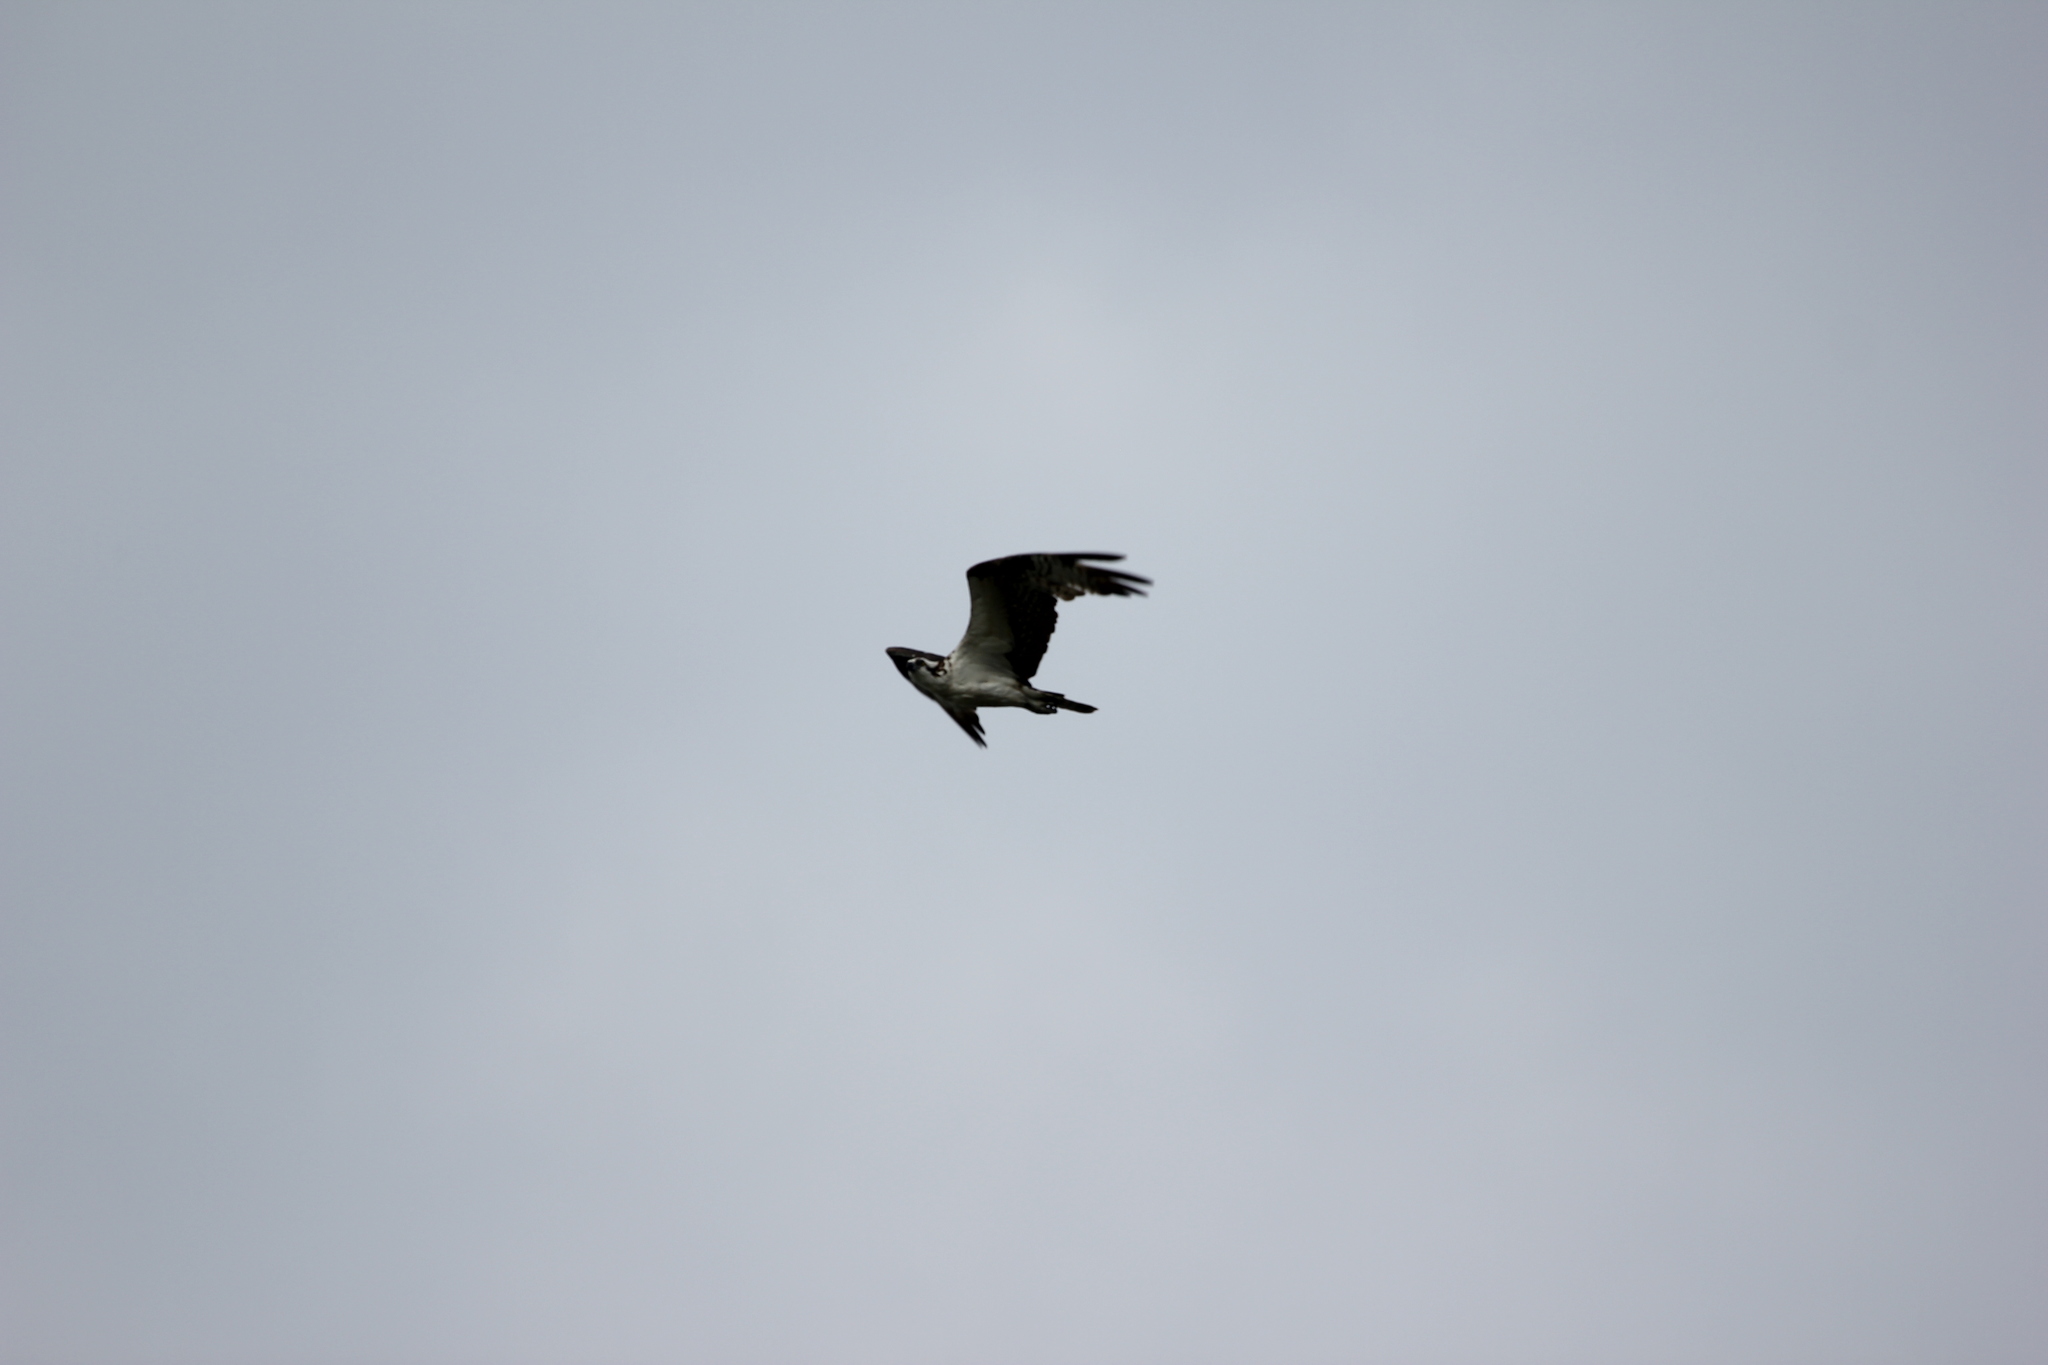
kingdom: Animalia
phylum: Chordata
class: Aves
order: Accipitriformes
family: Pandionidae
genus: Pandion
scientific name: Pandion haliaetus
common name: Osprey
